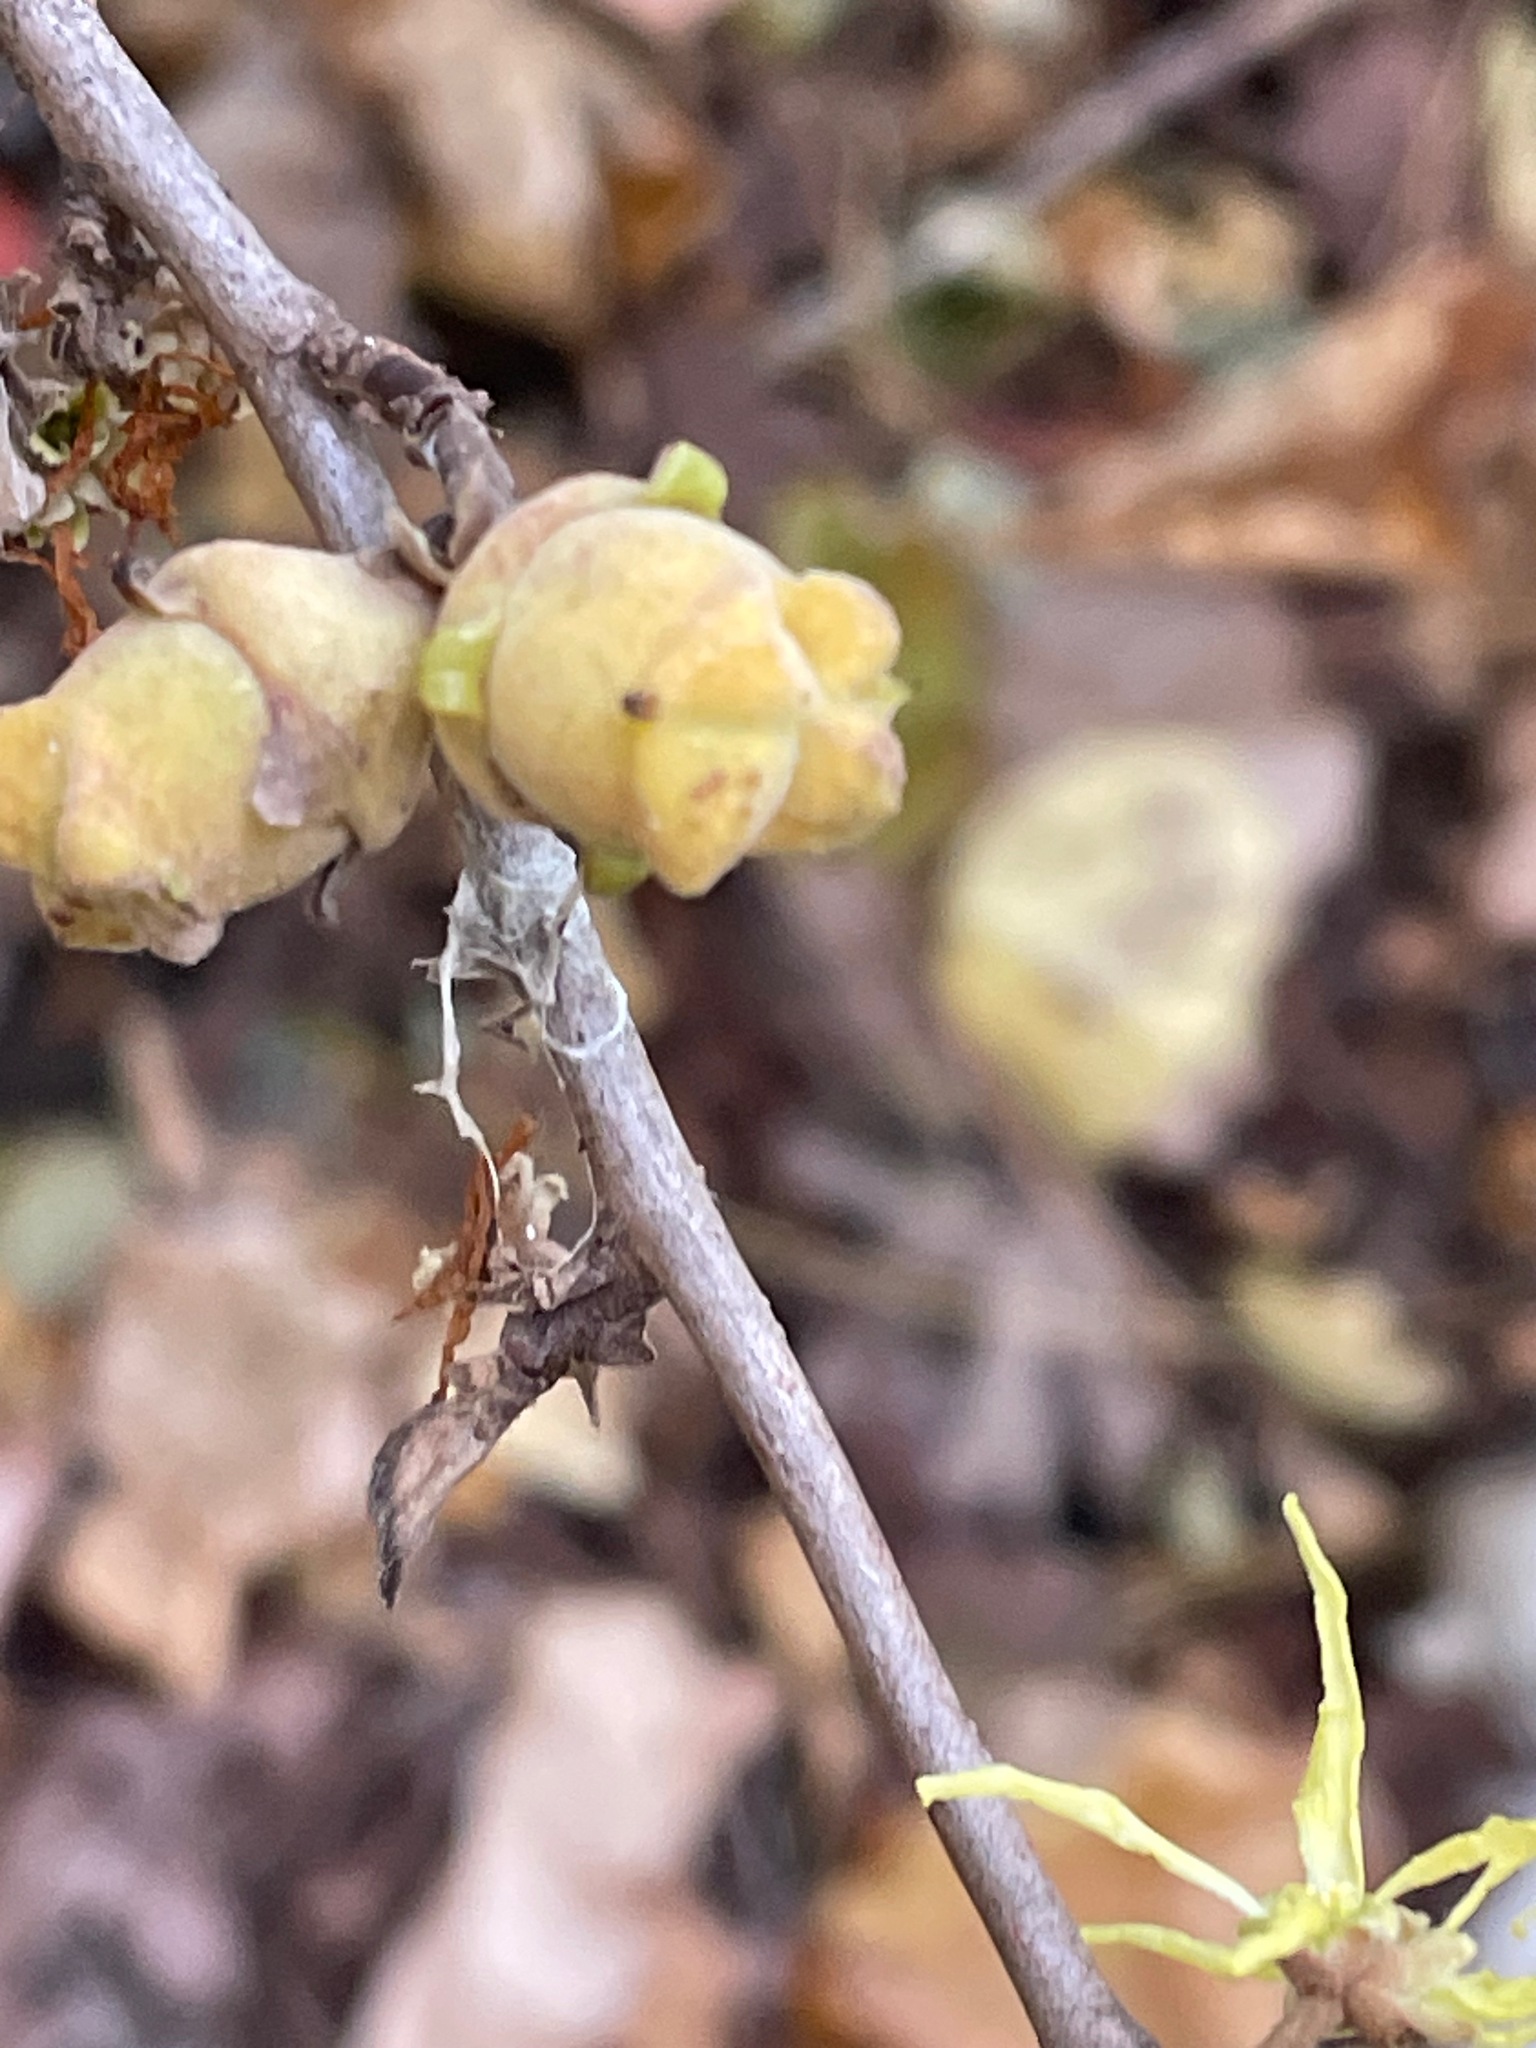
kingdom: Plantae
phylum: Tracheophyta
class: Magnoliopsida
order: Saxifragales
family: Hamamelidaceae
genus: Hamamelis
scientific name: Hamamelis virginiana
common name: Witch-hazel
